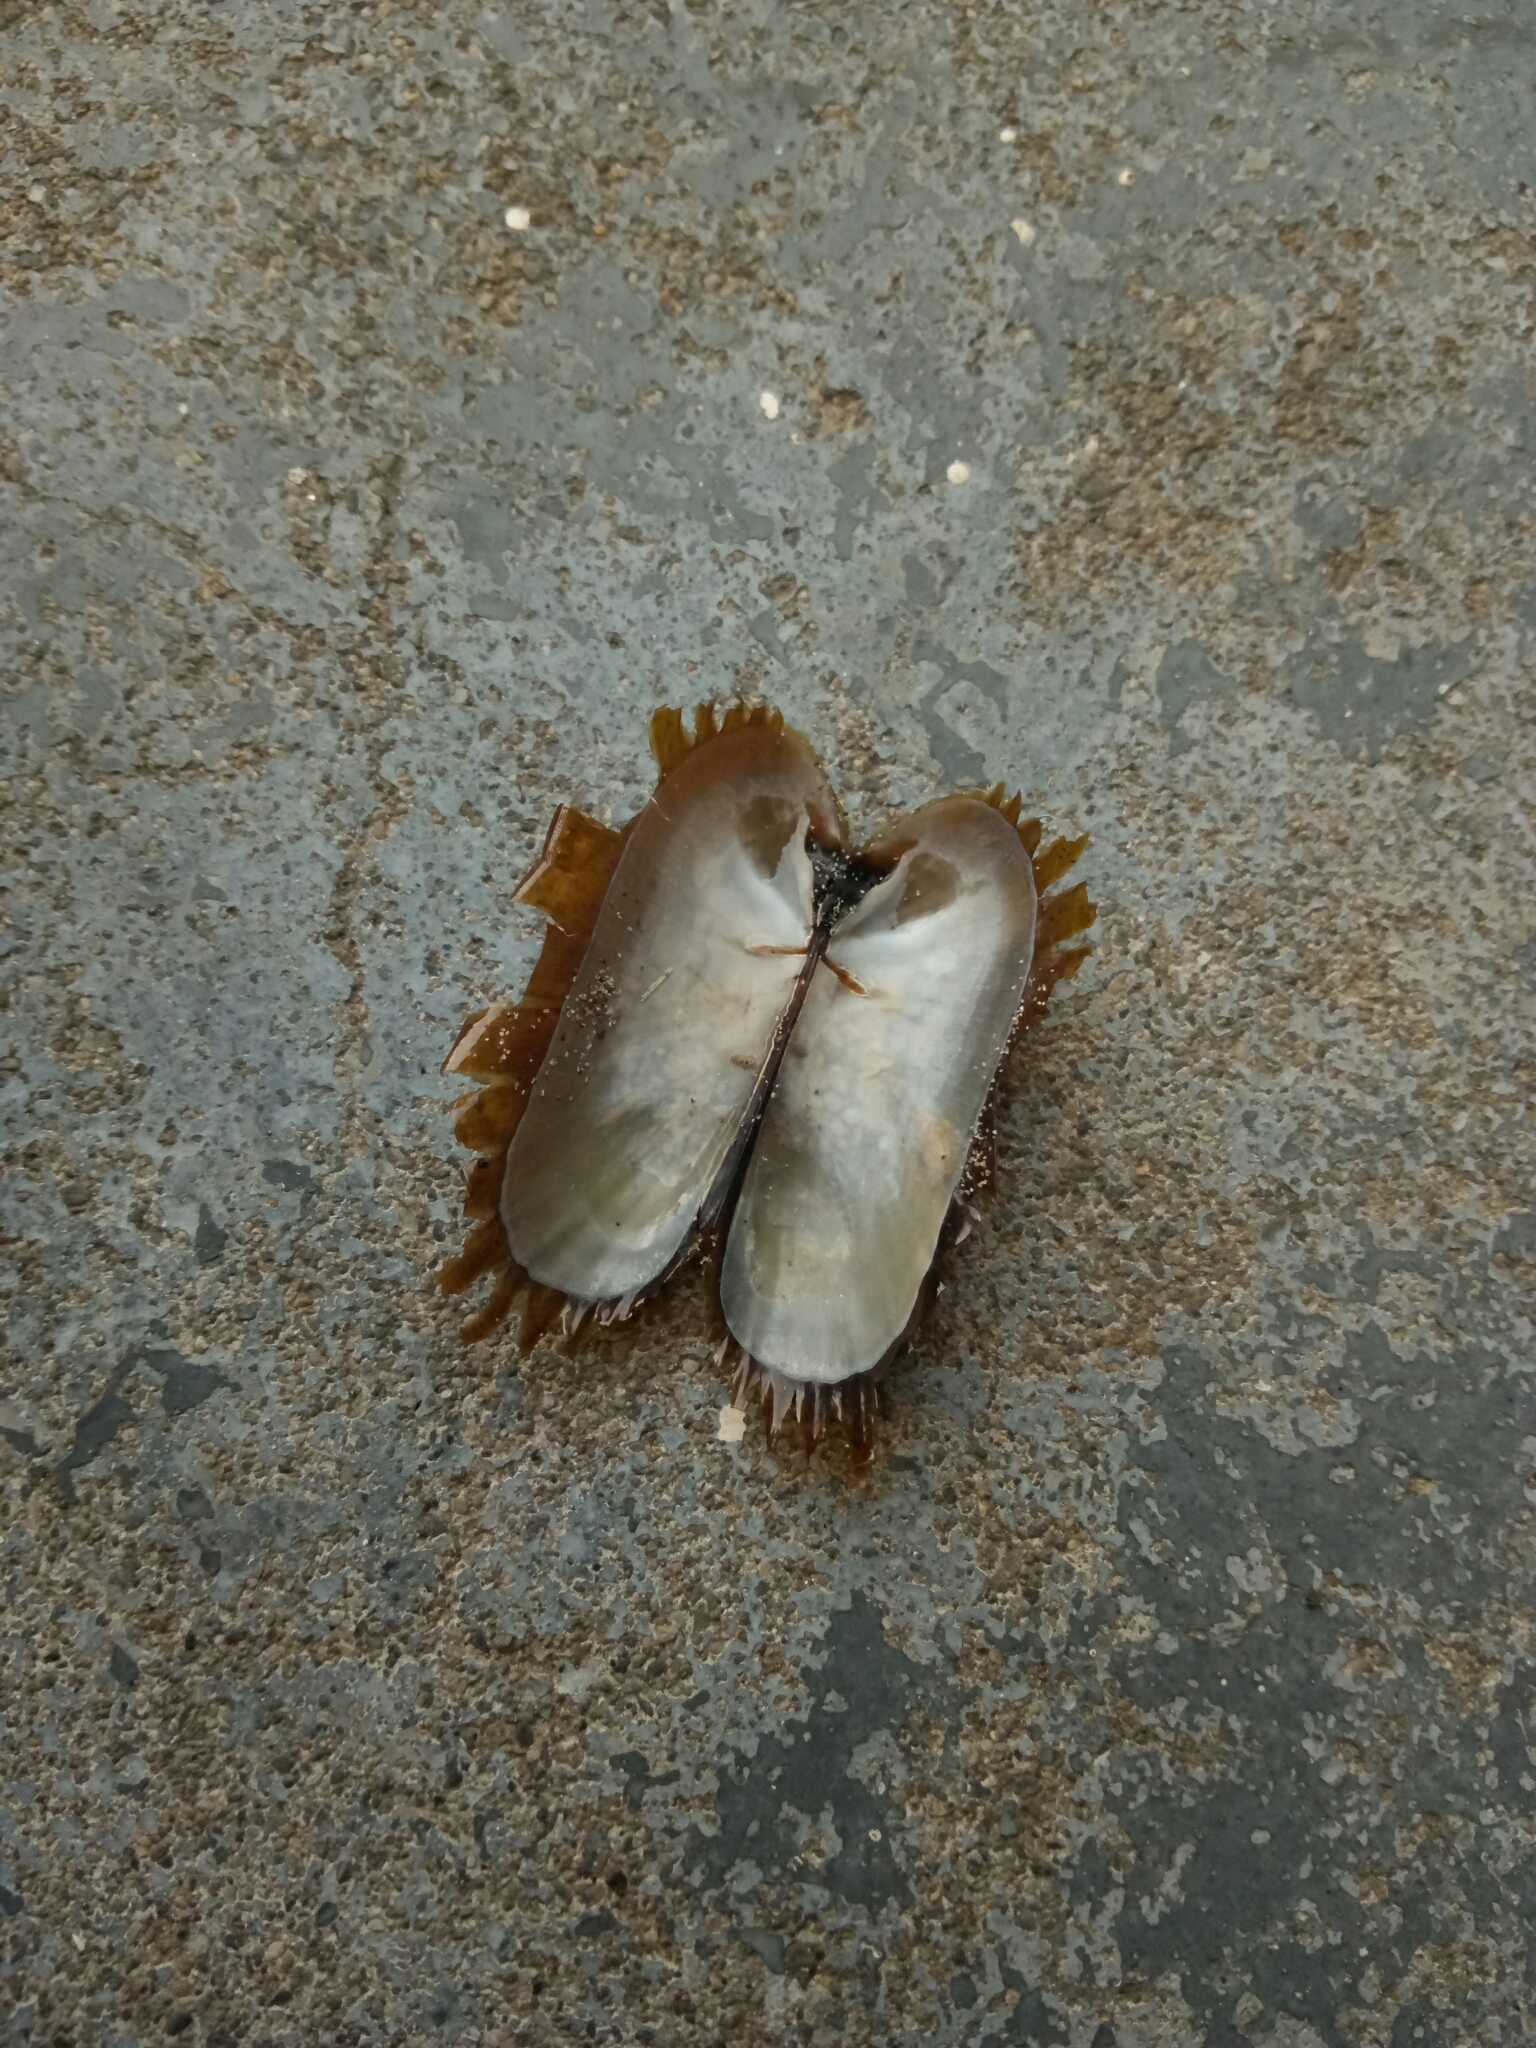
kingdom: Animalia
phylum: Mollusca
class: Bivalvia
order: Solemyida
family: Solemyidae
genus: Solemya
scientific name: Solemya parkinsonii
